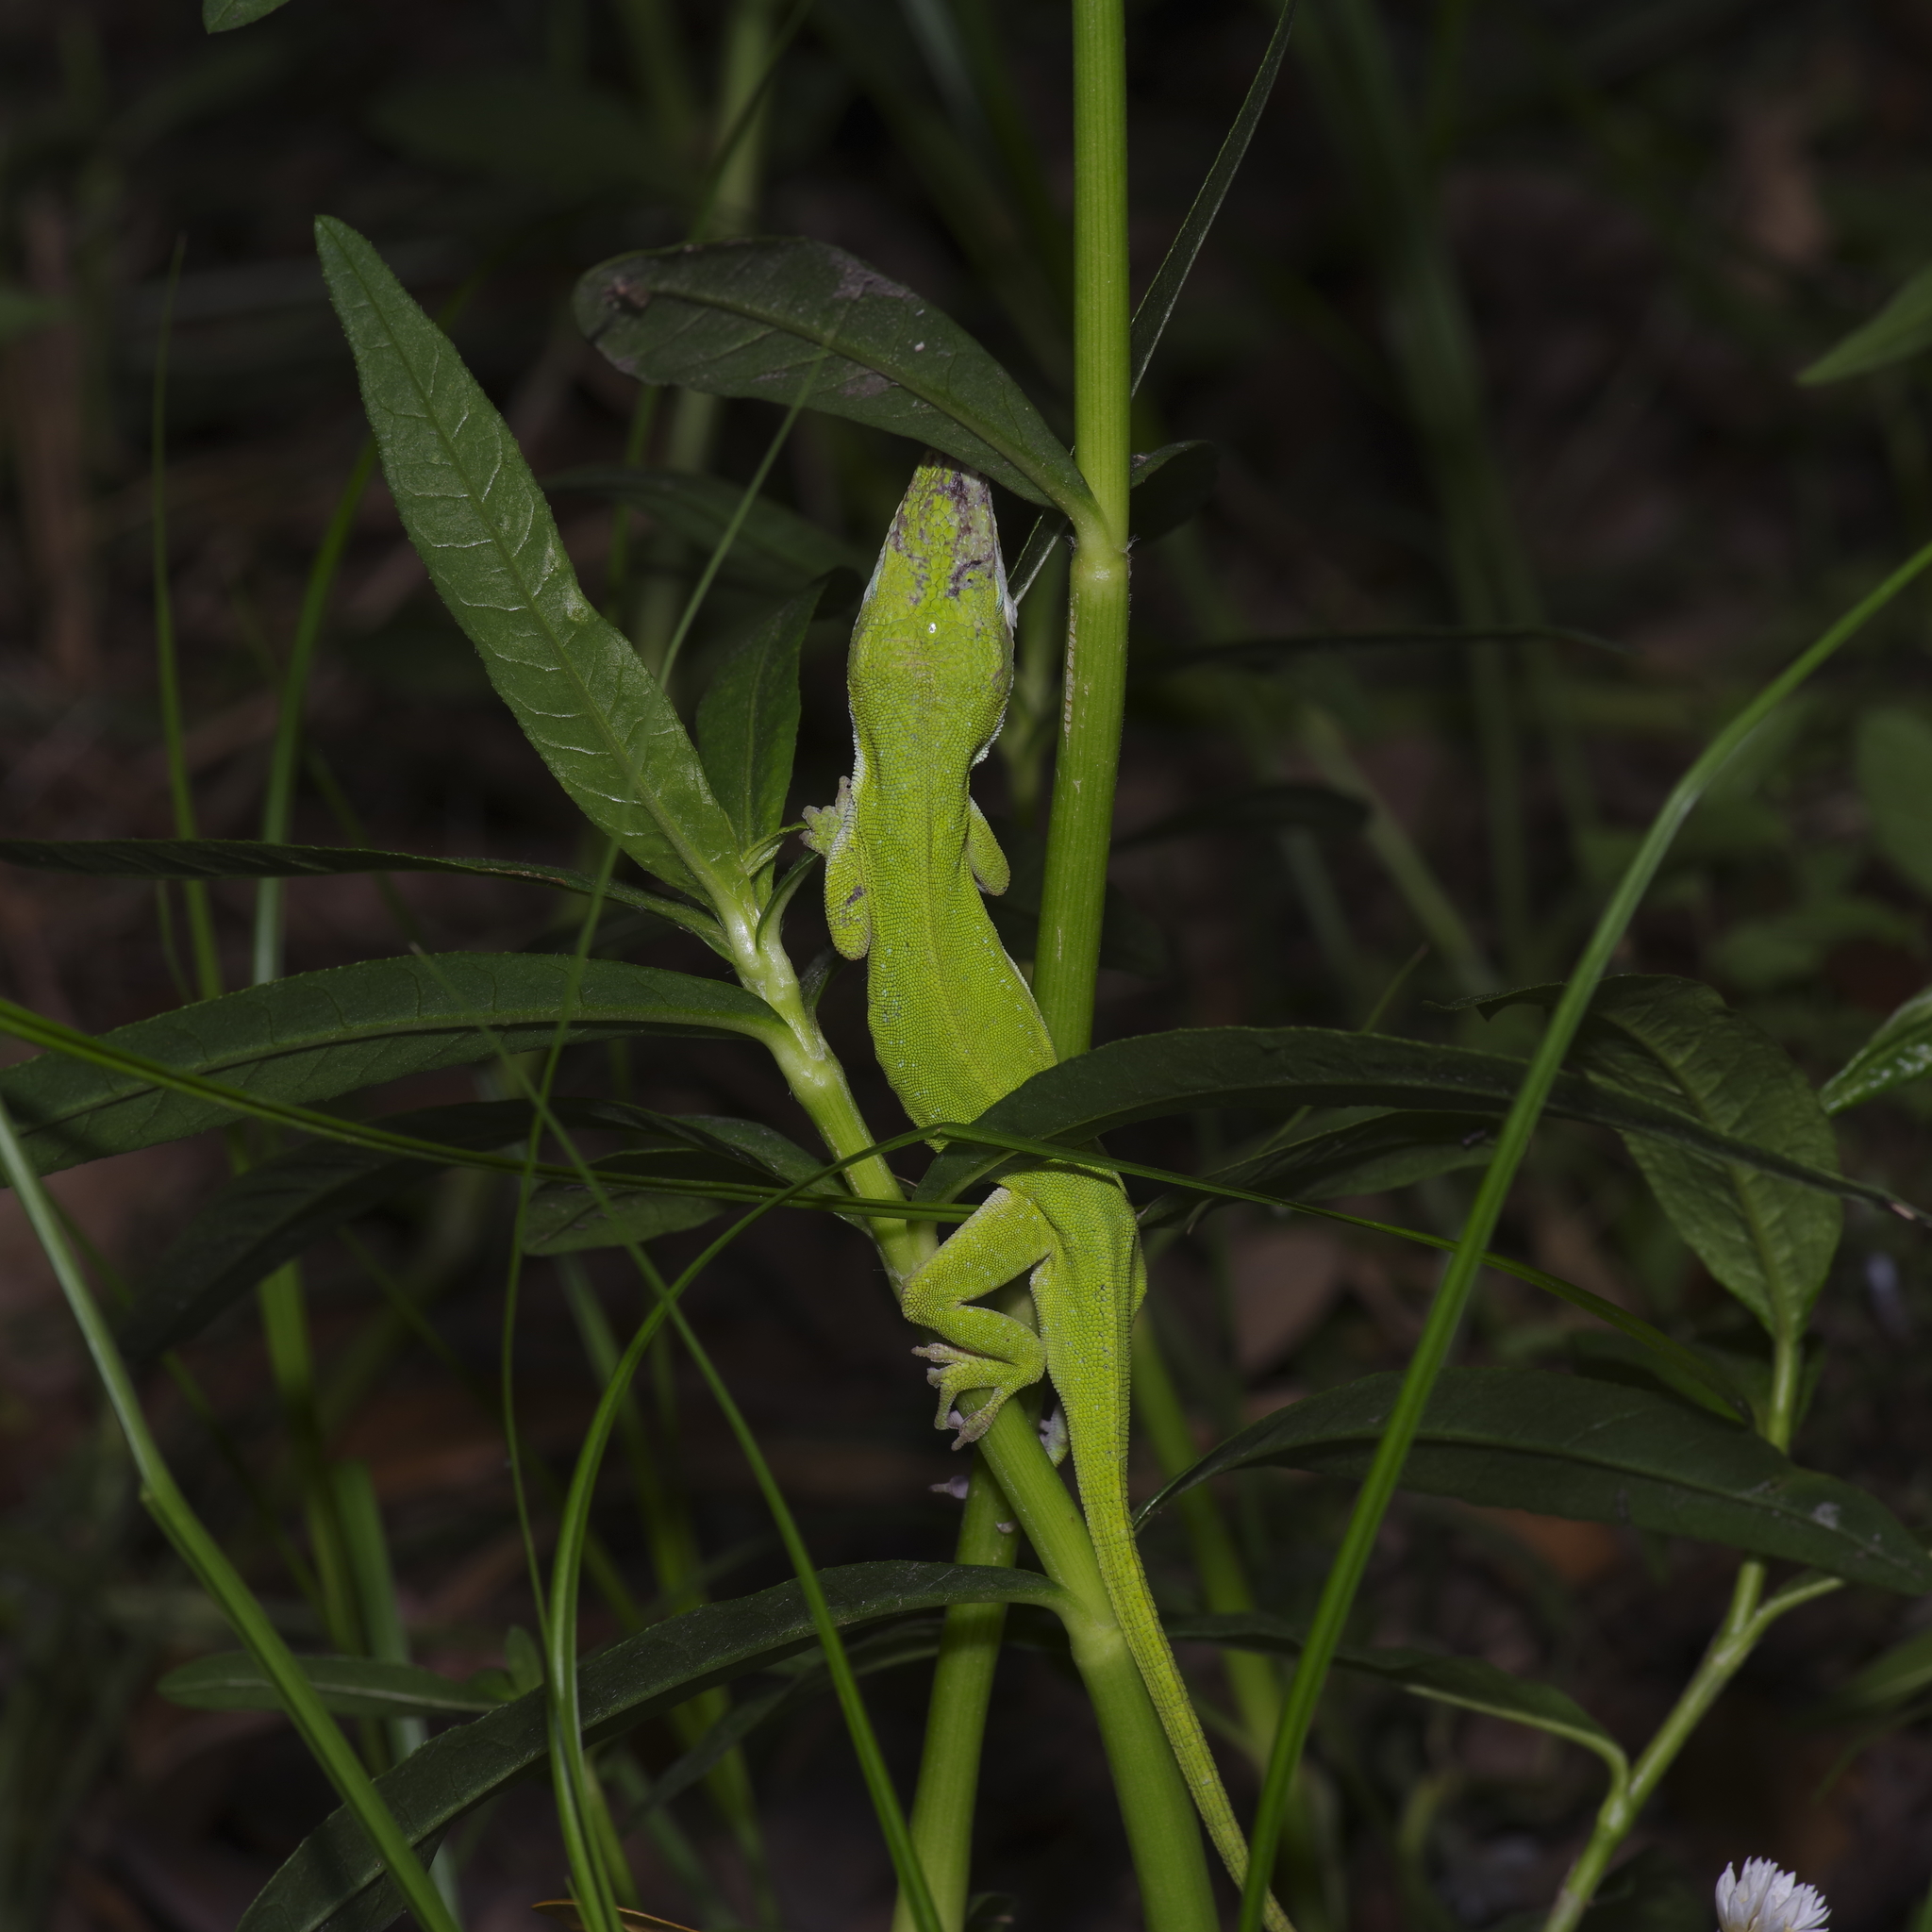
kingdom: Animalia
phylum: Chordata
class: Squamata
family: Dactyloidae
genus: Anolis
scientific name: Anolis carolinensis
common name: Green anole
